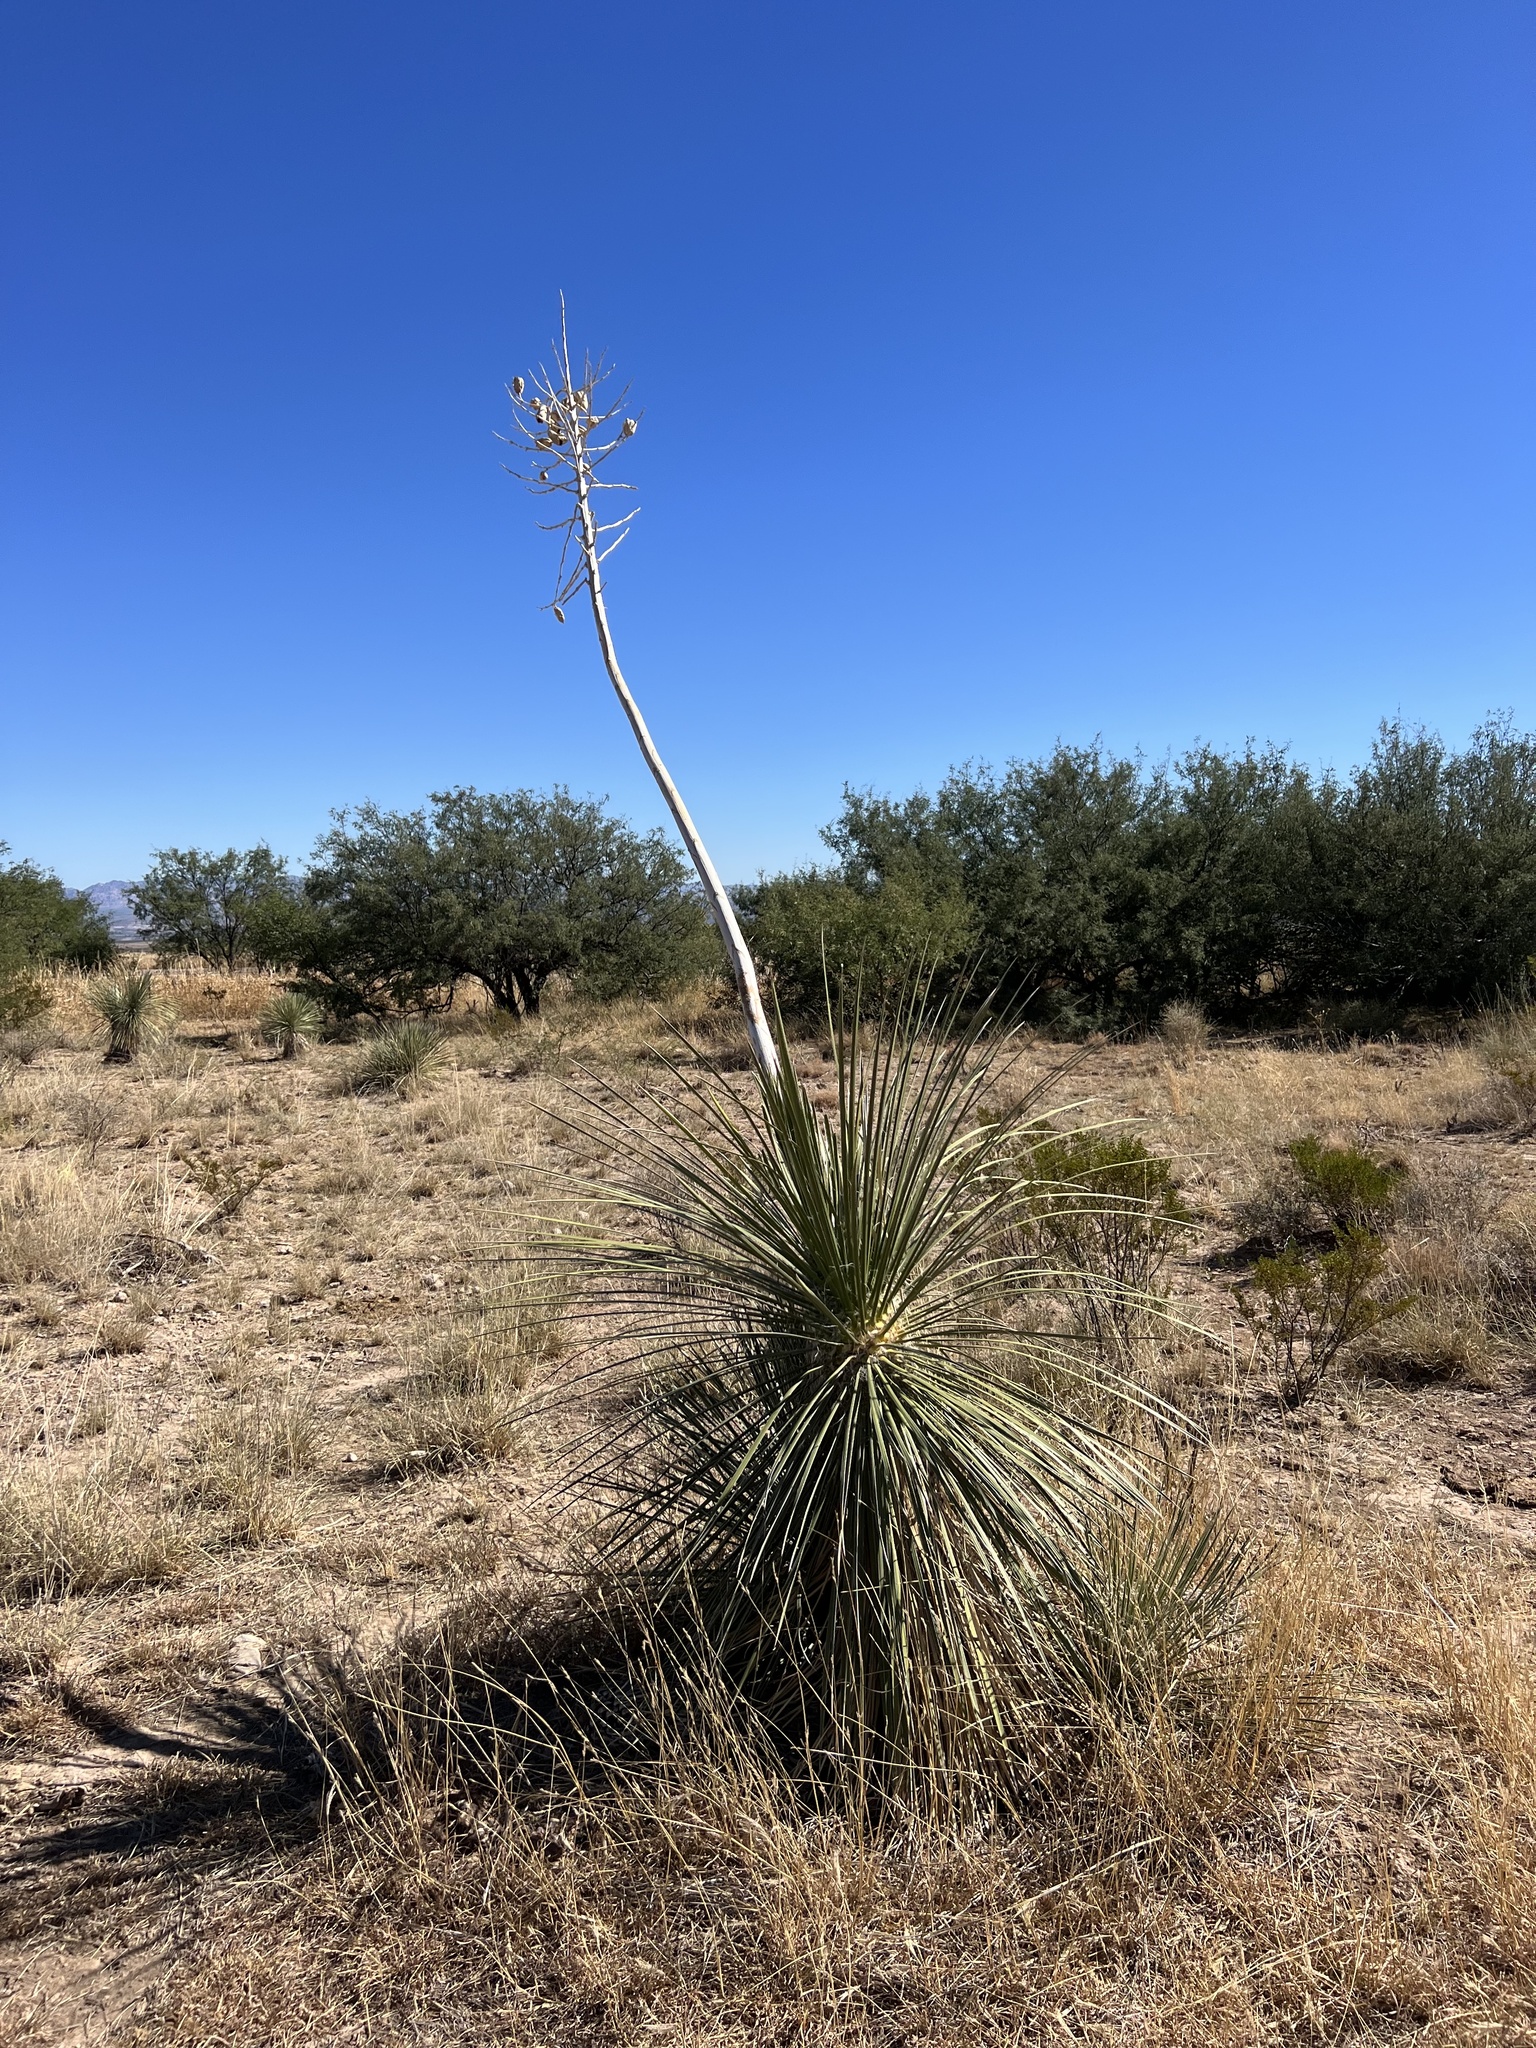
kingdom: Plantae
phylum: Tracheophyta
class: Liliopsida
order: Asparagales
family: Asparagaceae
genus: Yucca
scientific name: Yucca elata
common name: Palmella
